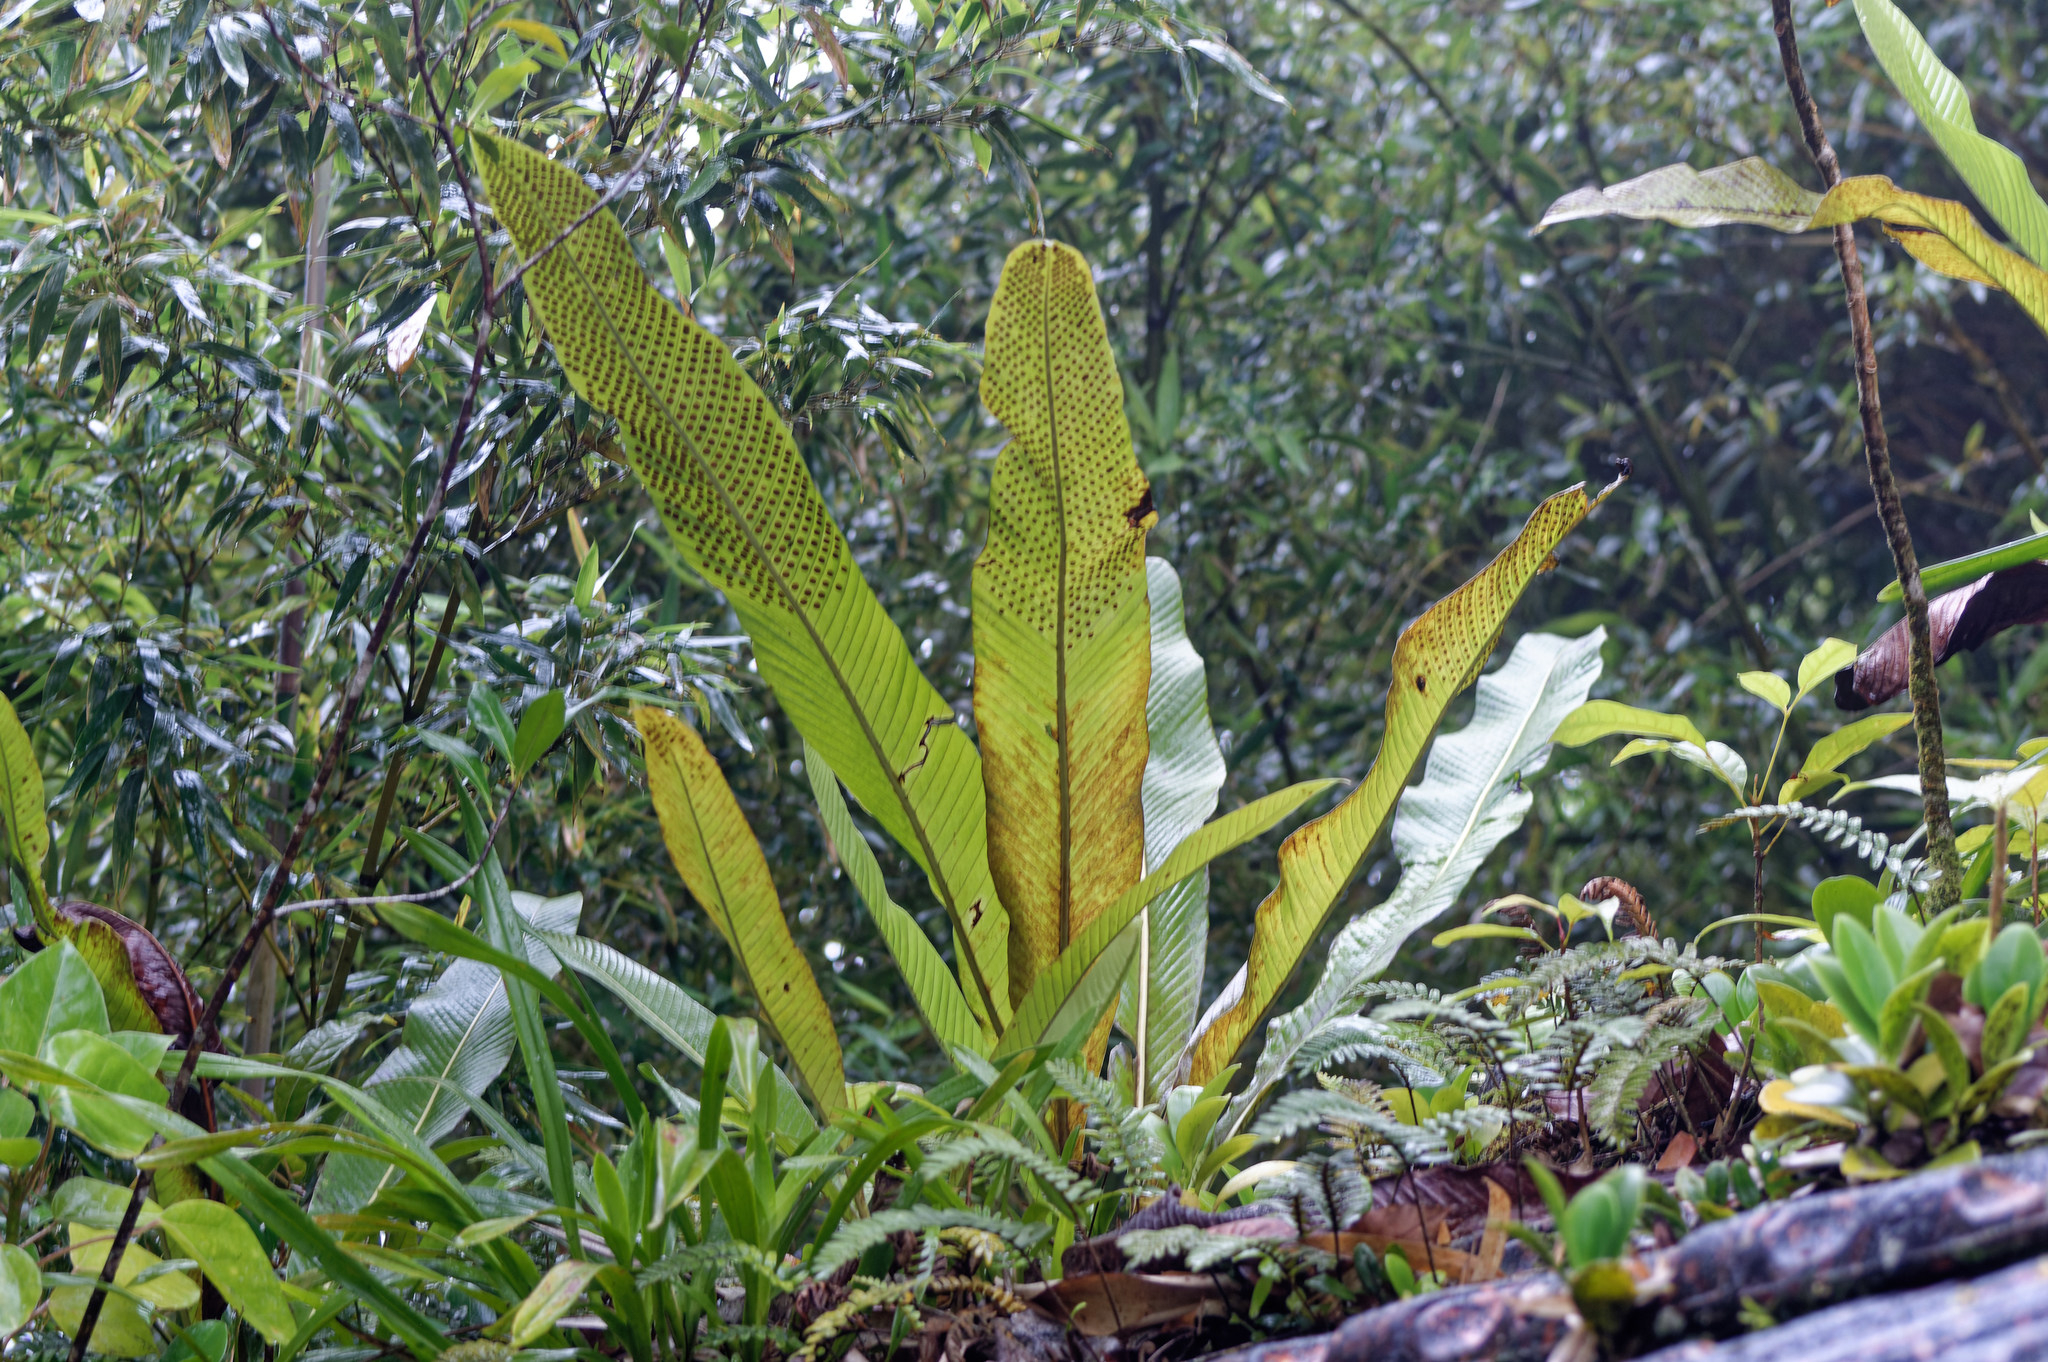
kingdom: Plantae
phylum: Tracheophyta
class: Polypodiopsida
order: Polypodiales
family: Polypodiaceae
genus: Niphidium
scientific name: Niphidium crassifolium
